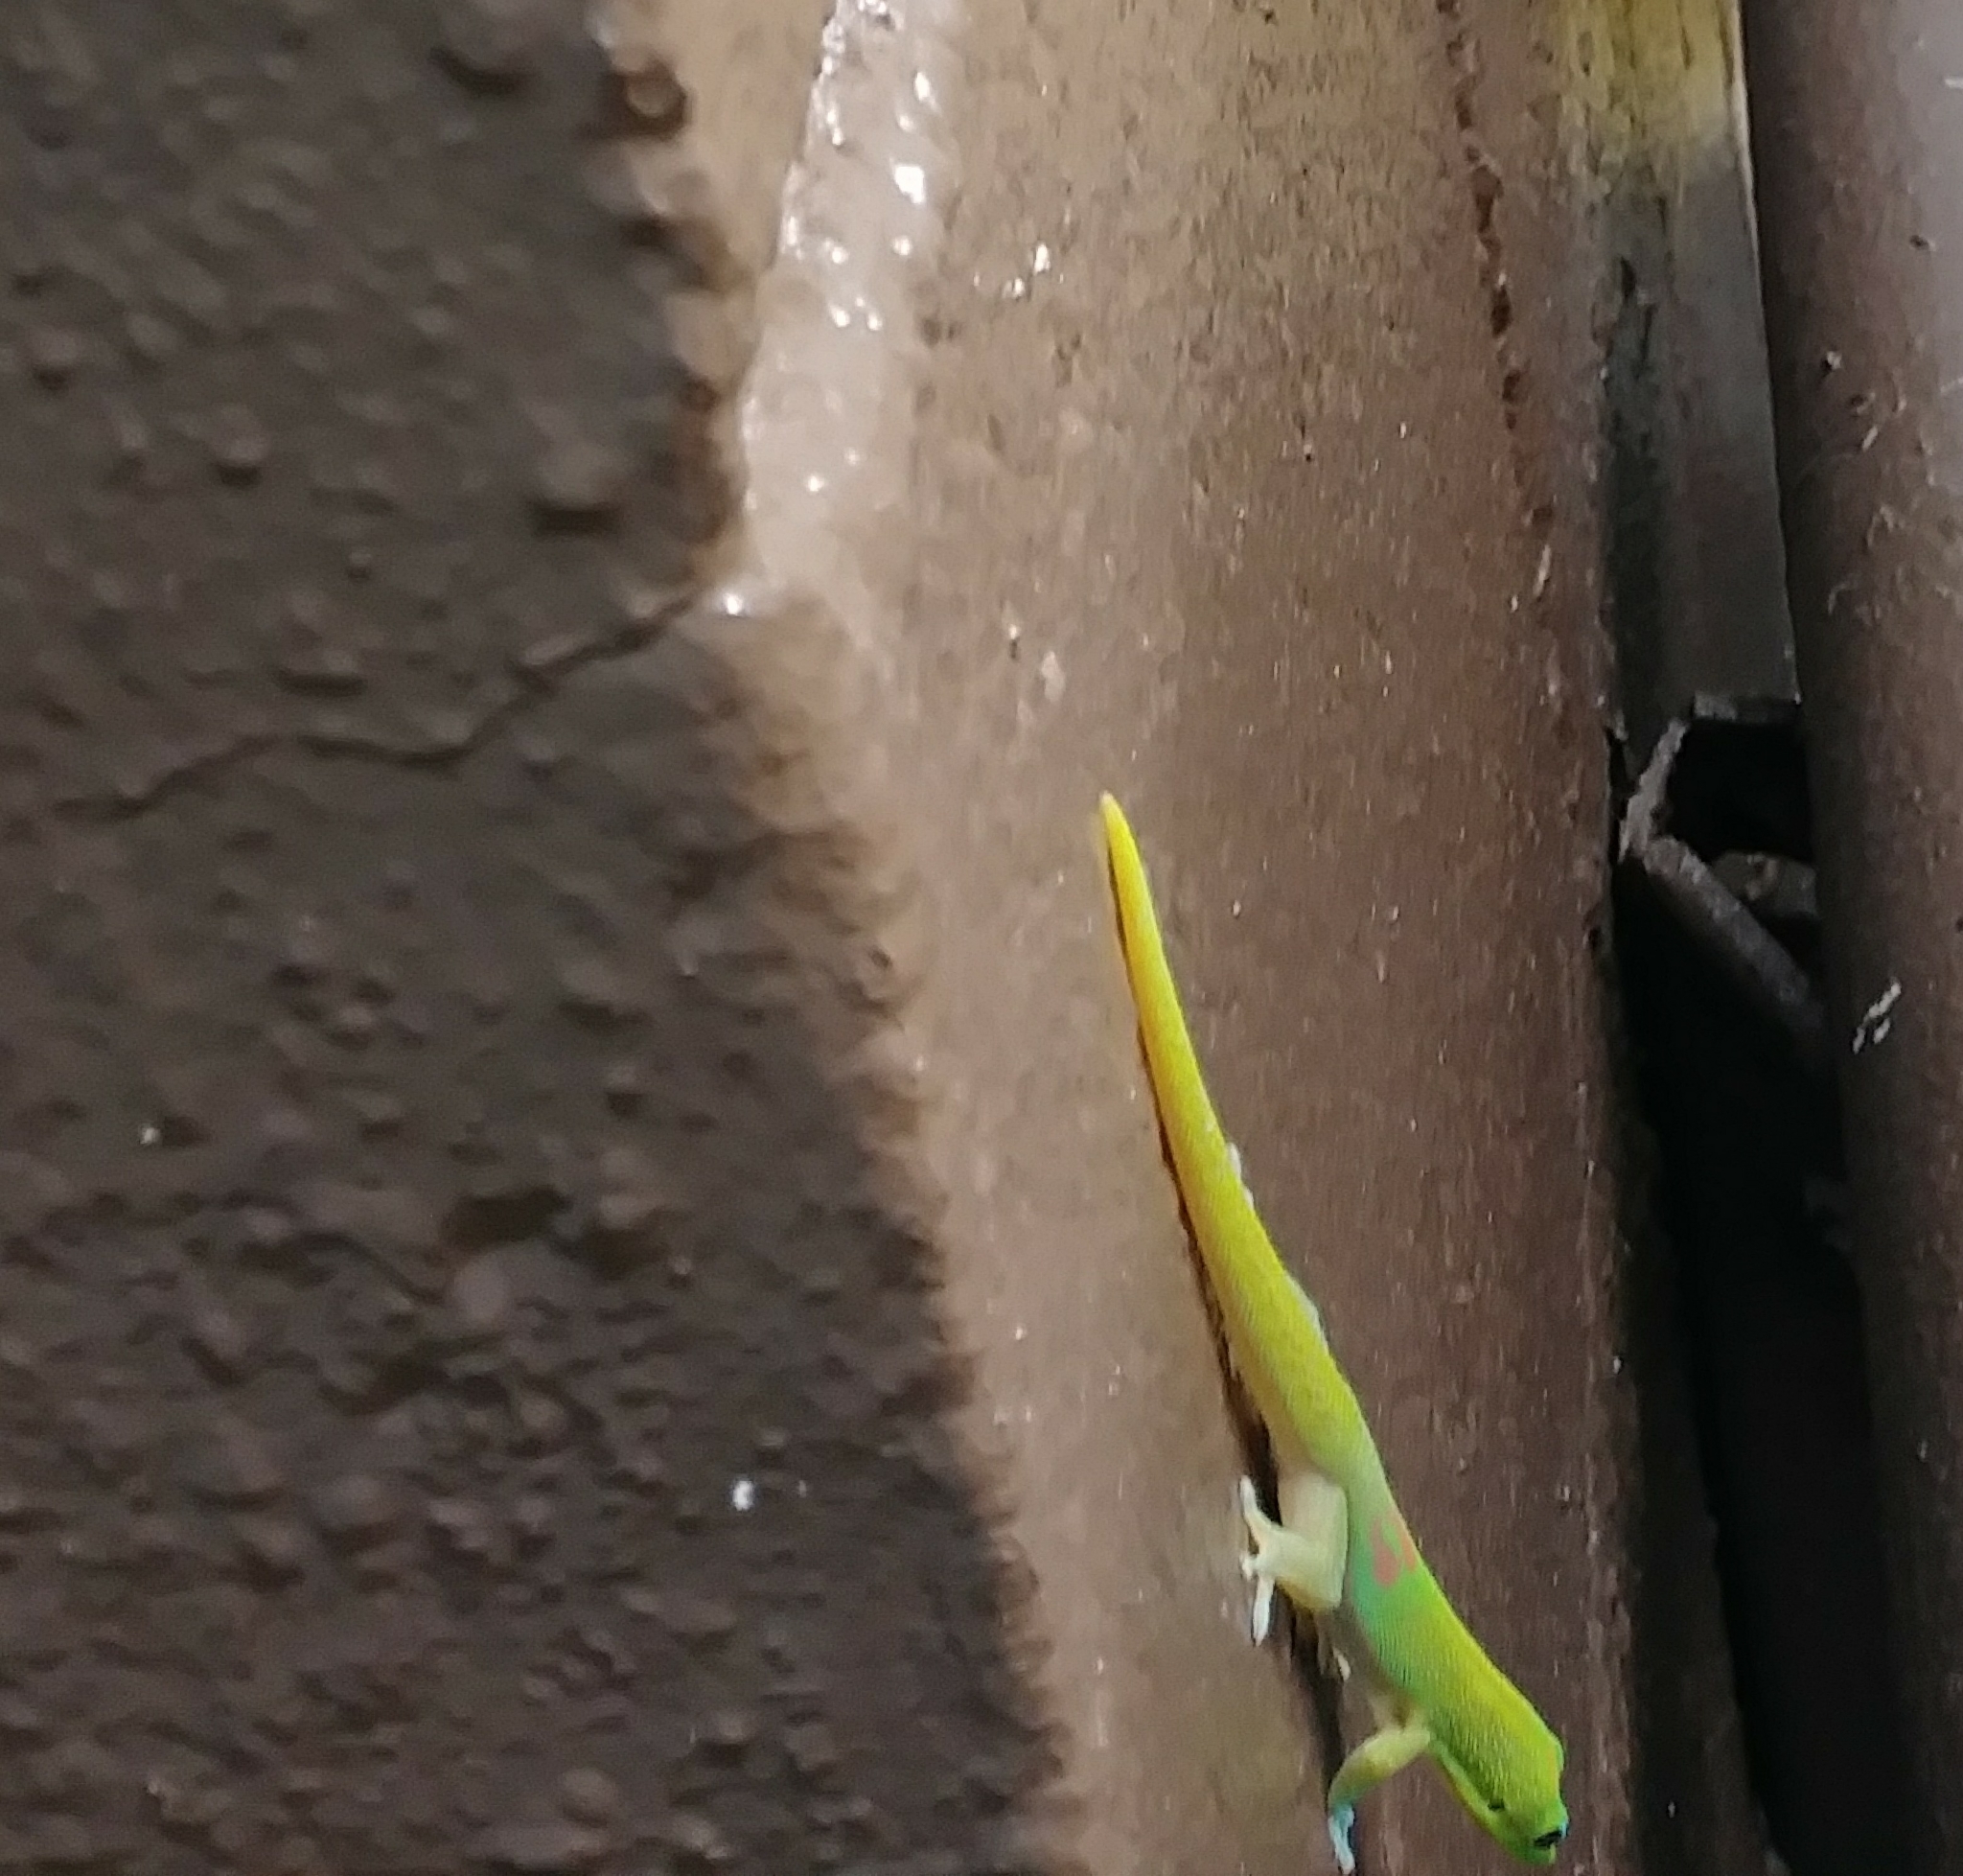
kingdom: Animalia
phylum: Chordata
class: Squamata
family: Gekkonidae
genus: Phelsuma
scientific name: Phelsuma laticauda
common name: Gold dust day gecko
